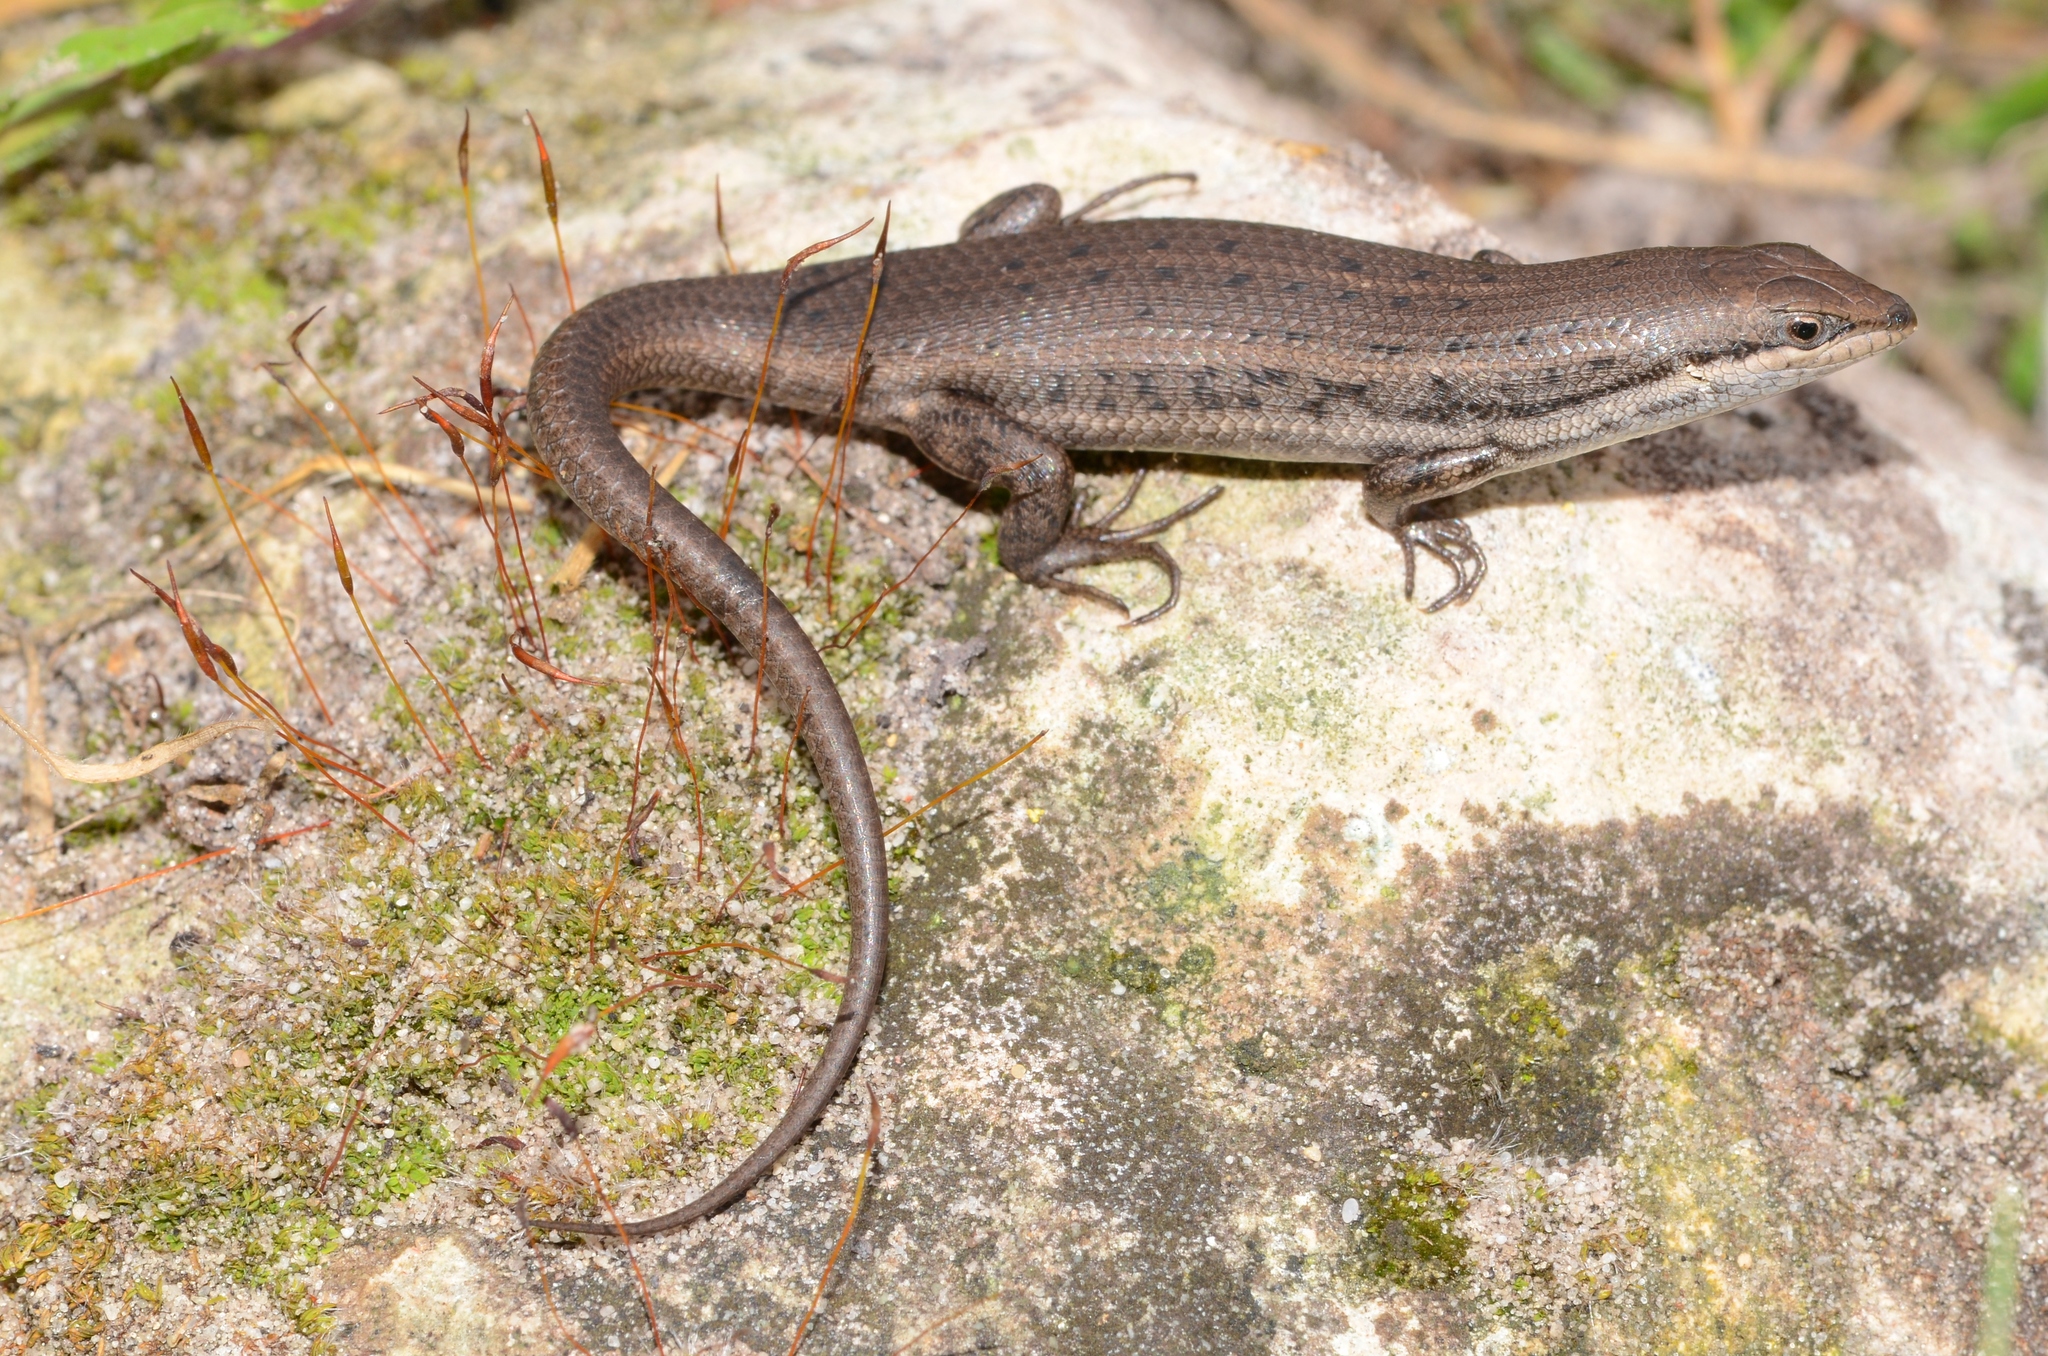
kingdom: Animalia
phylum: Chordata
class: Squamata
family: Scincidae
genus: Trachylepis
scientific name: Trachylepis variegata
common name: Variegated skink
